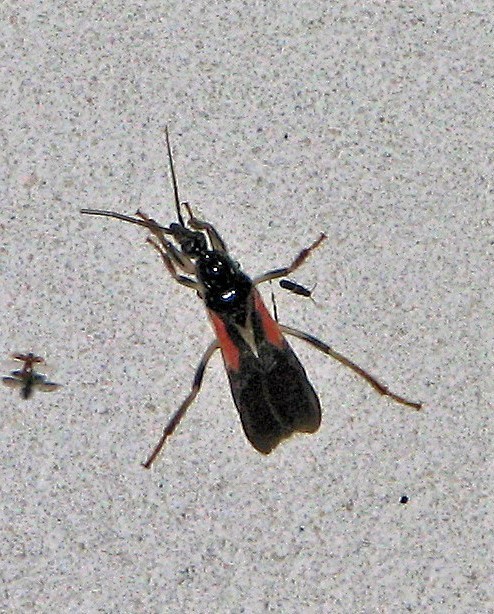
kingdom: Animalia
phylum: Arthropoda
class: Insecta
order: Hemiptera
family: Reduviidae
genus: Sirthenea
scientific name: Sirthenea stria
